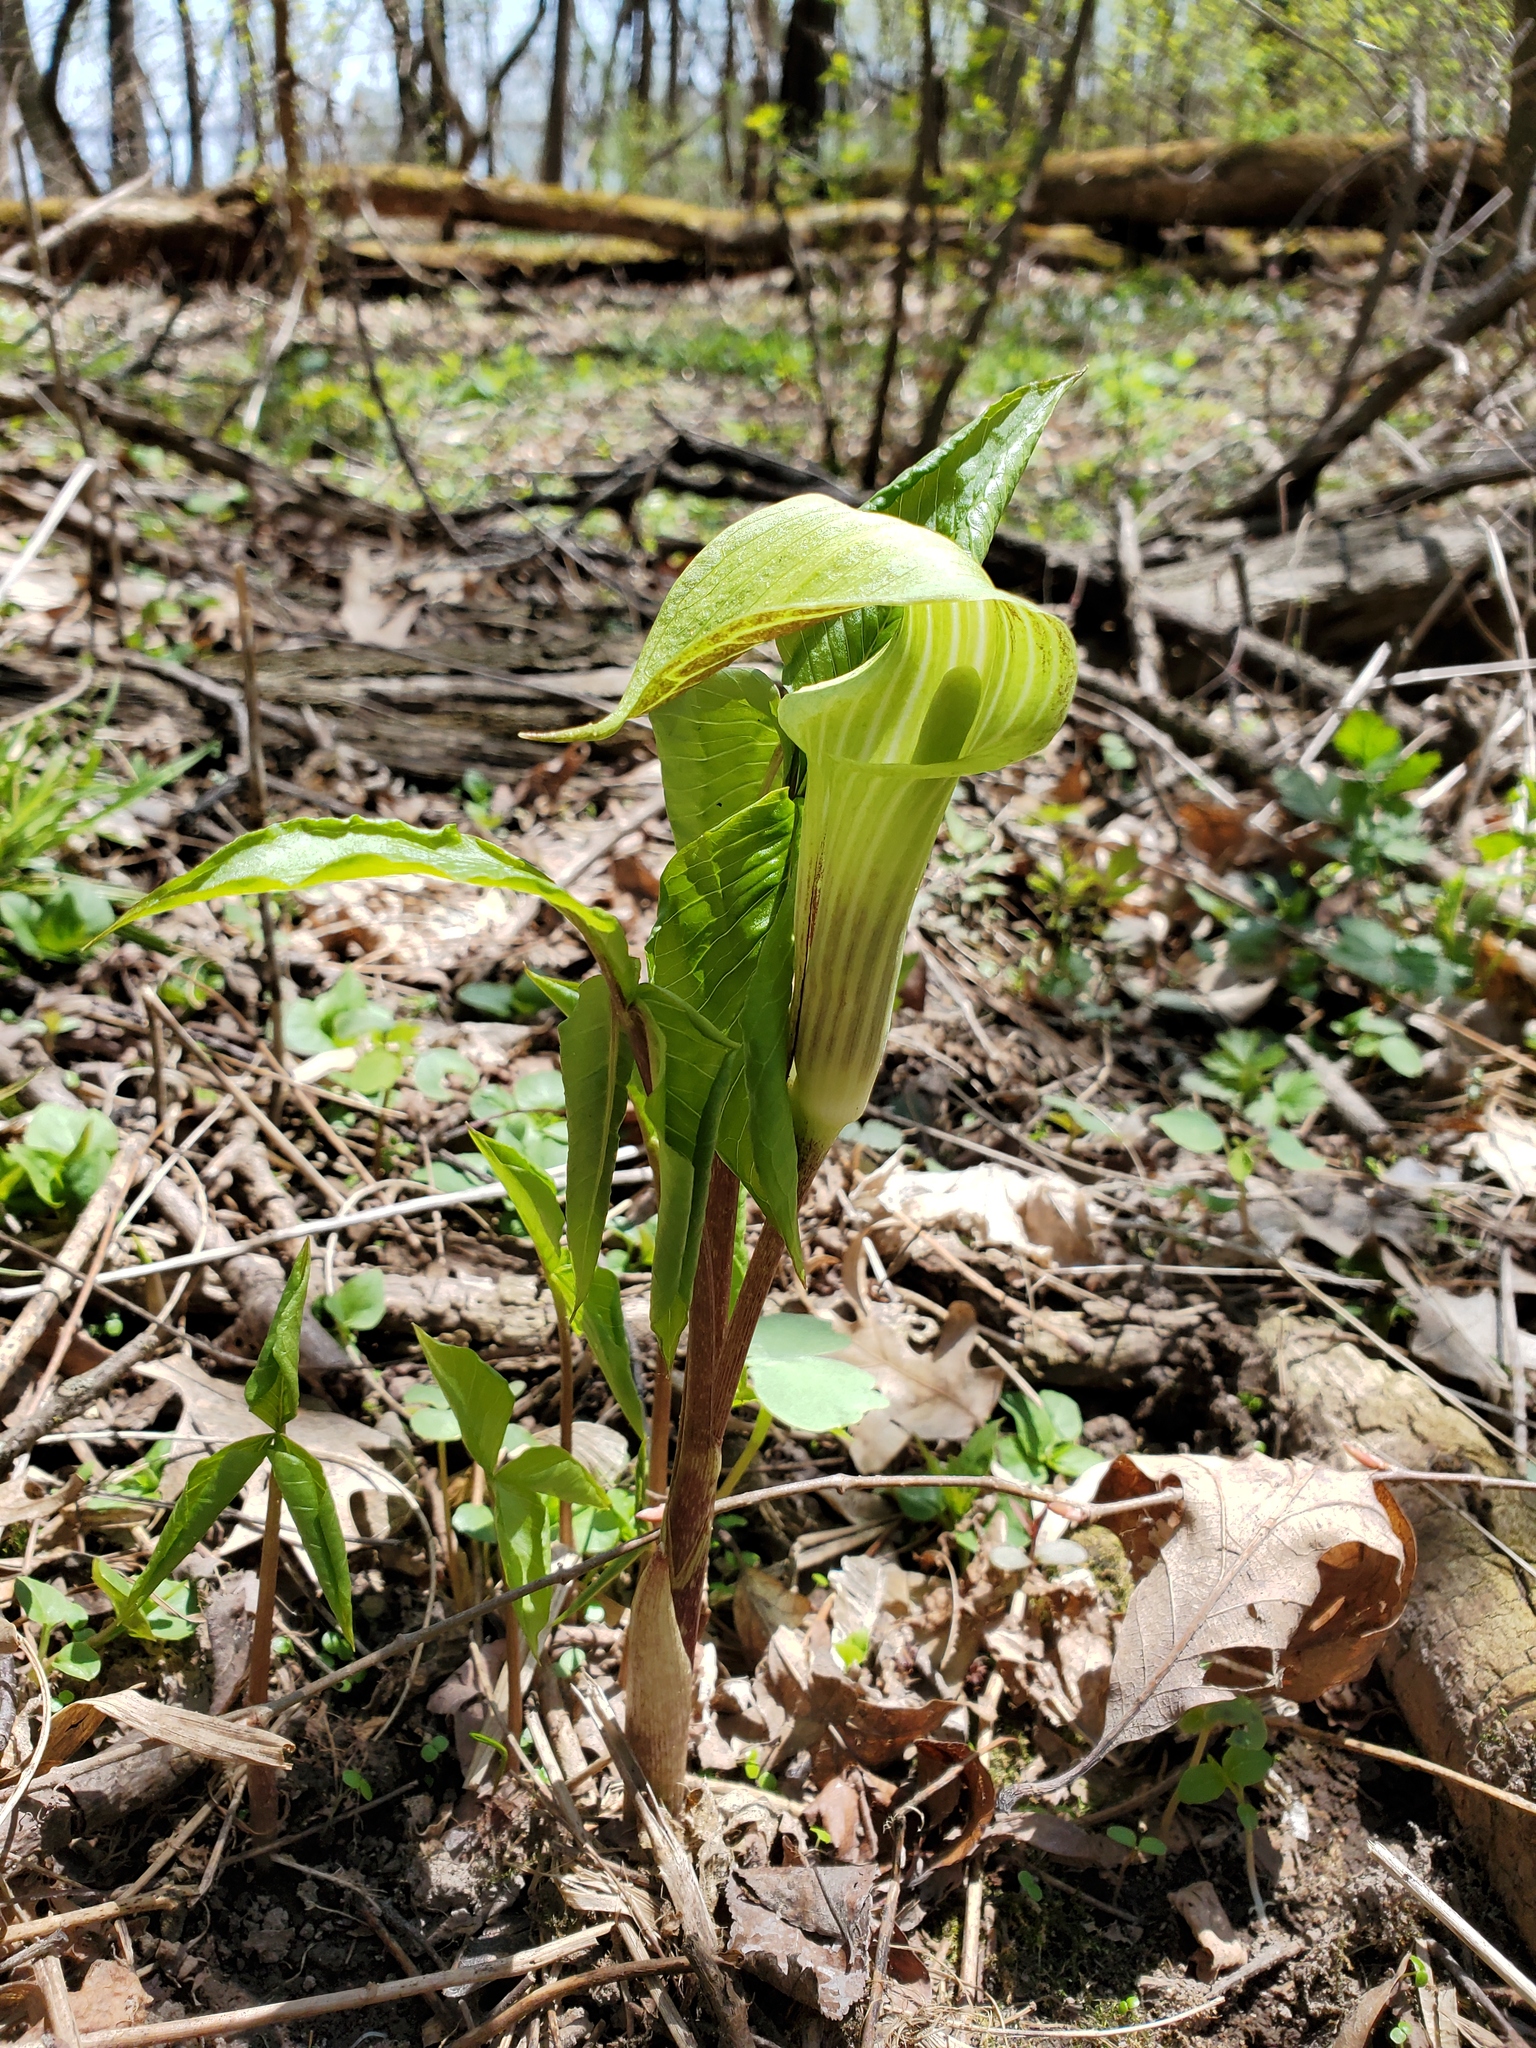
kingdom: Plantae
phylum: Tracheophyta
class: Liliopsida
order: Alismatales
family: Araceae
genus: Arisaema
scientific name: Arisaema triphyllum
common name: Jack-in-the-pulpit
